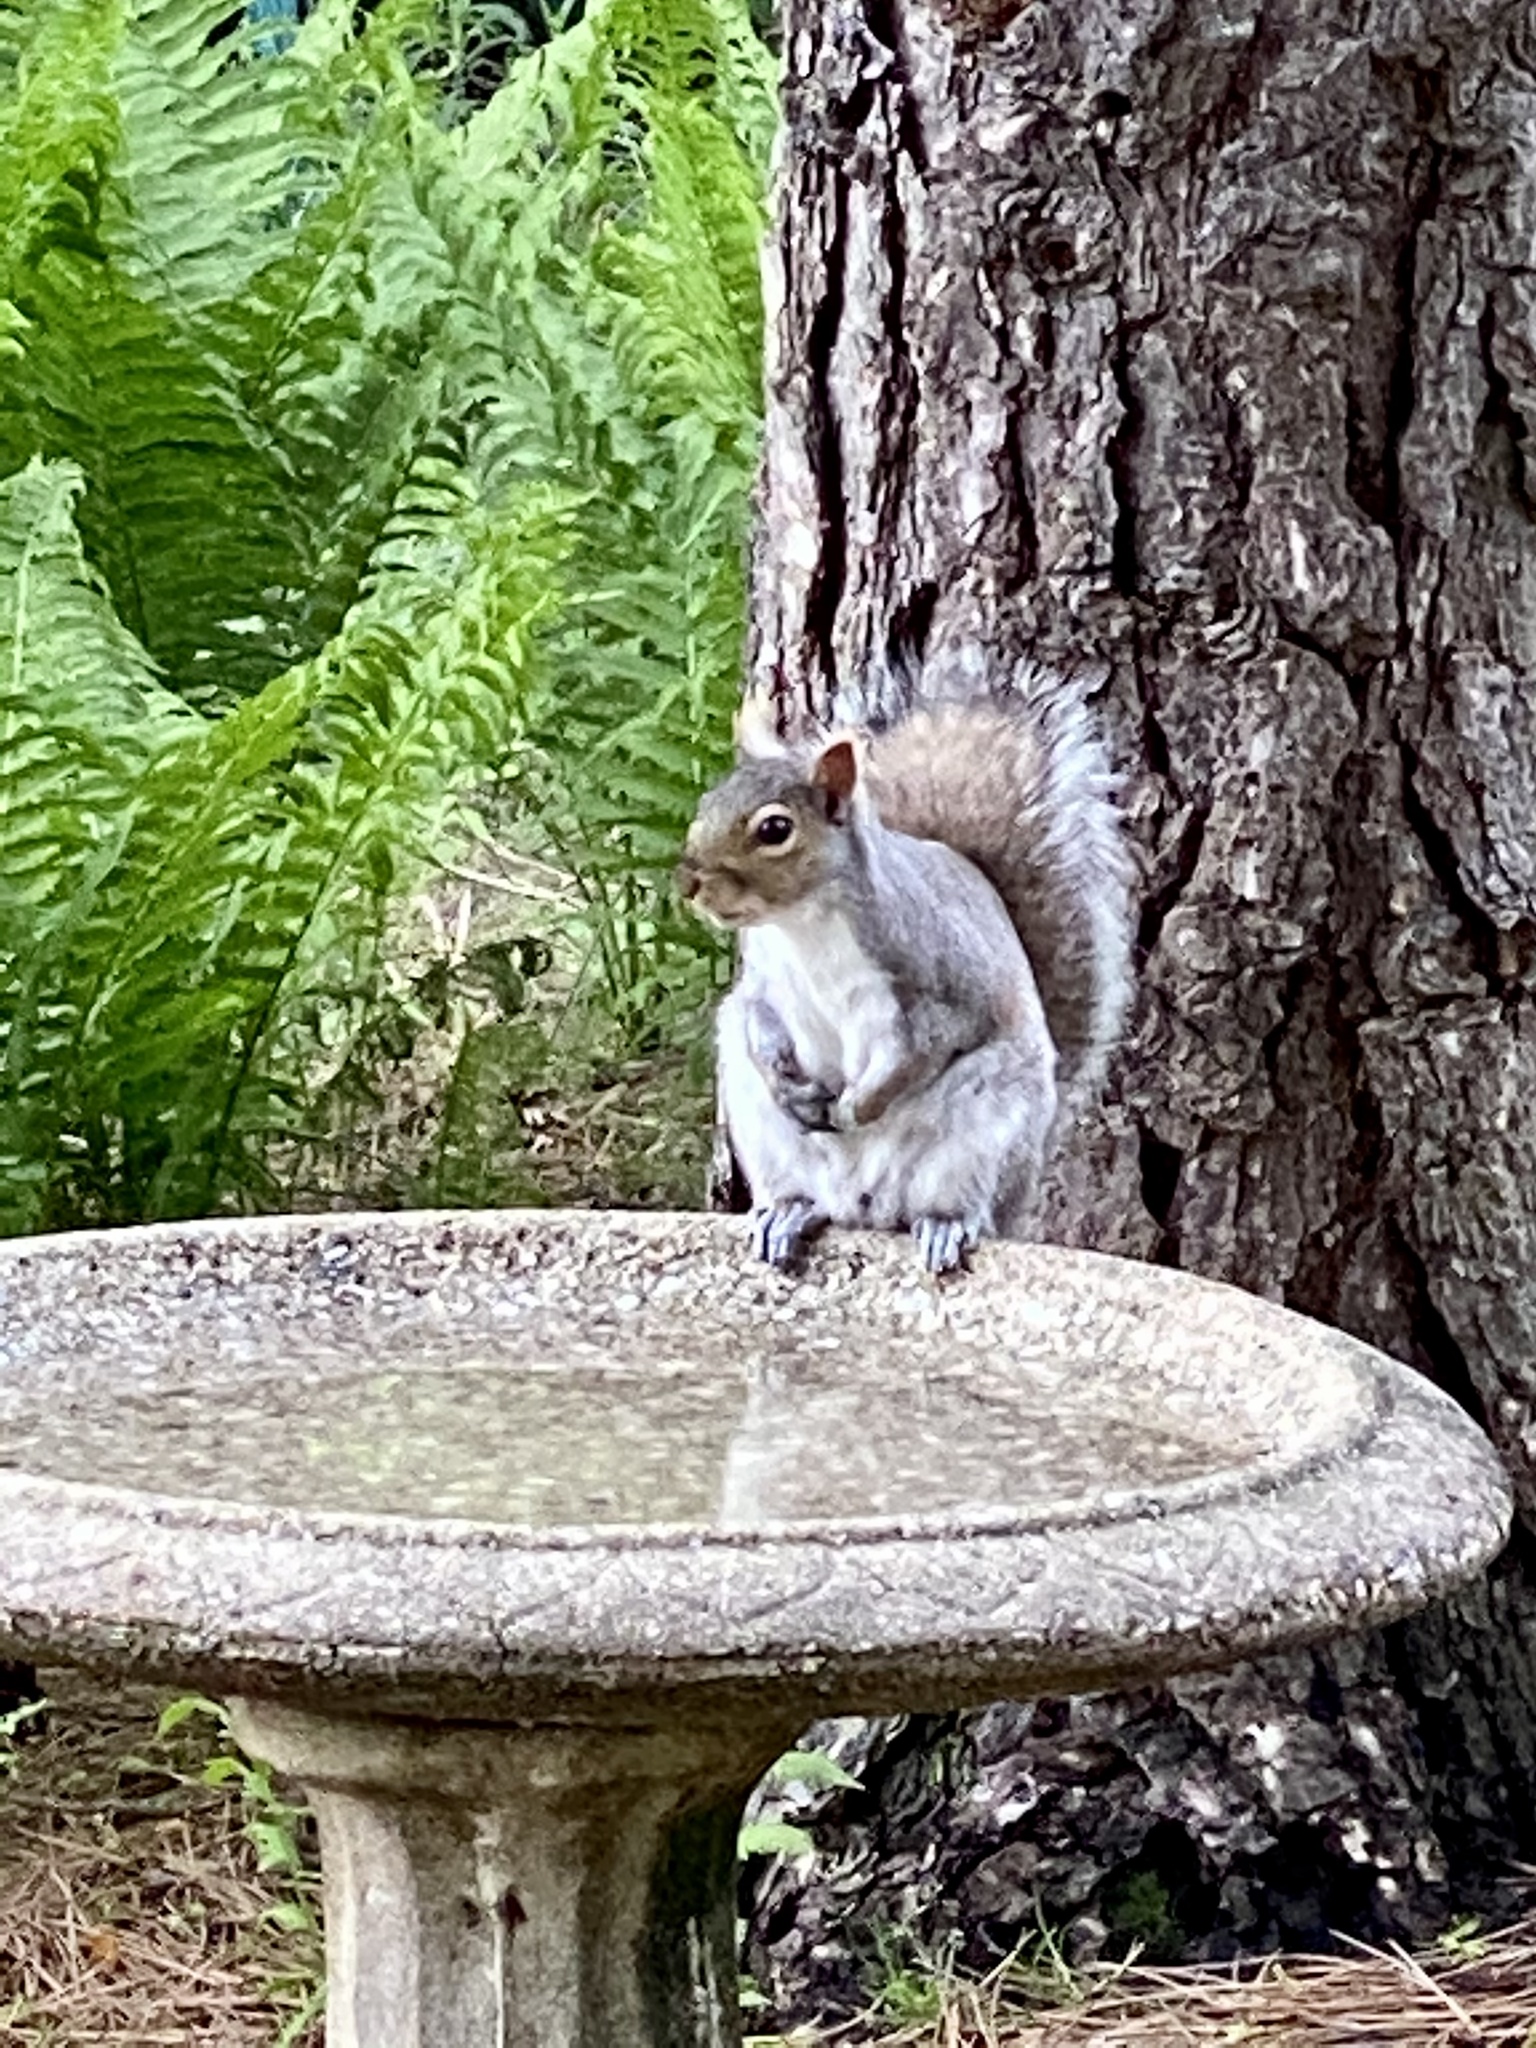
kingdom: Animalia
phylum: Chordata
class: Mammalia
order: Rodentia
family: Sciuridae
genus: Sciurus
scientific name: Sciurus carolinensis
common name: Eastern gray squirrel
